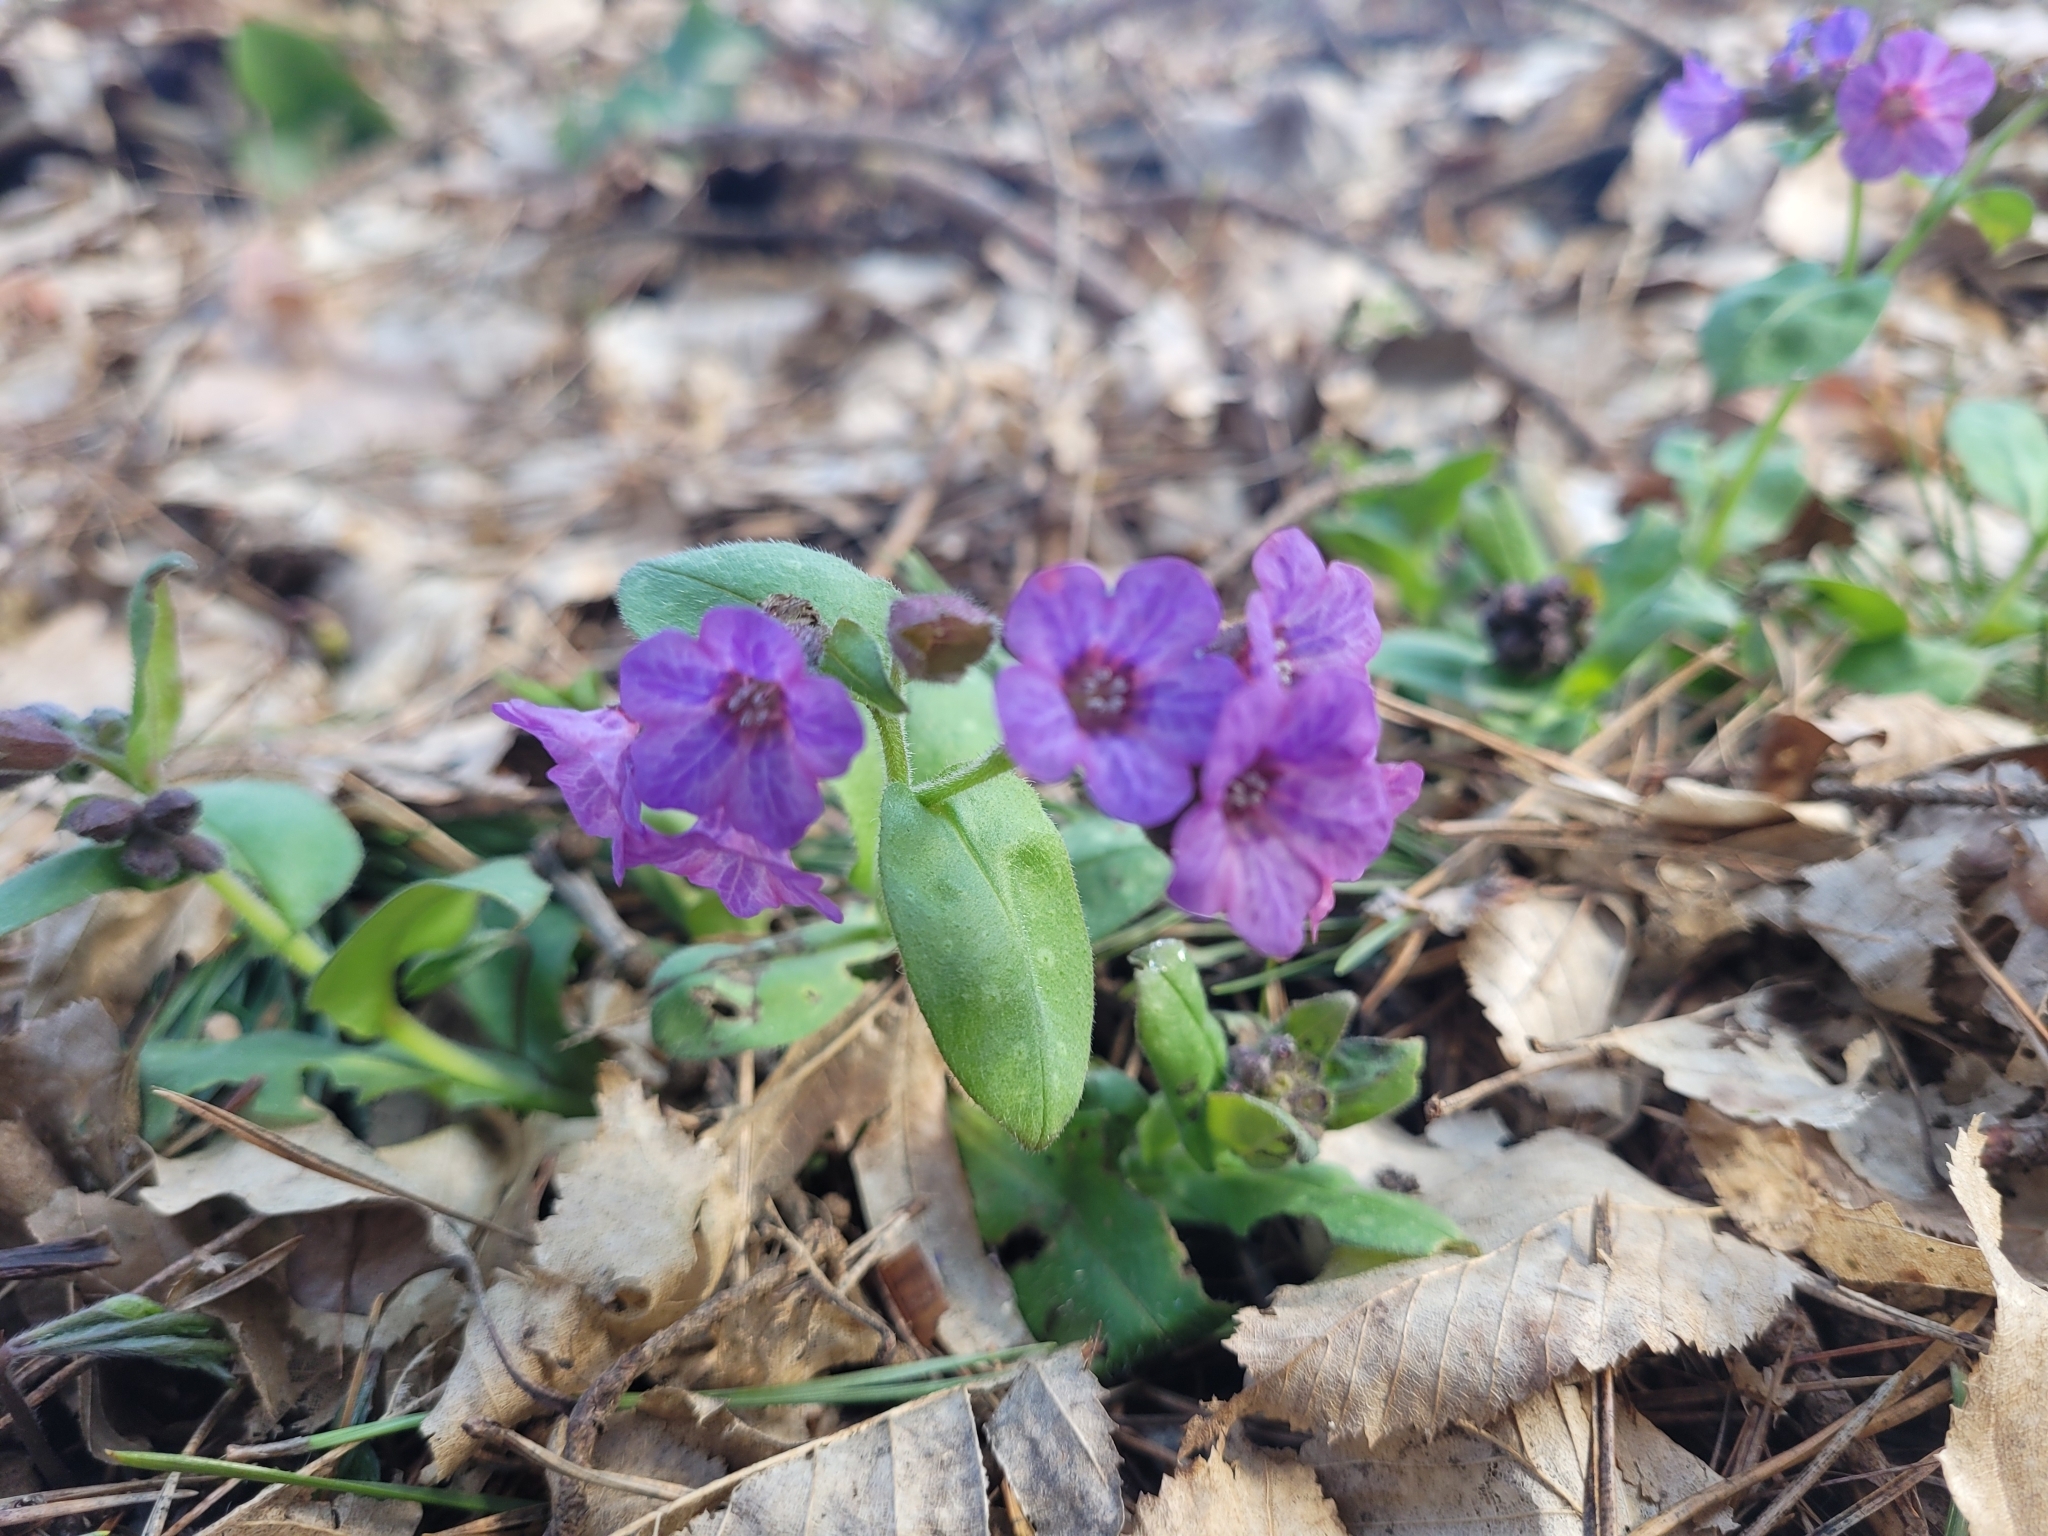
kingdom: Plantae
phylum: Tracheophyta
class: Magnoliopsida
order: Boraginales
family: Boraginaceae
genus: Pulmonaria
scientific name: Pulmonaria obscura
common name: Suffolk lungwort
